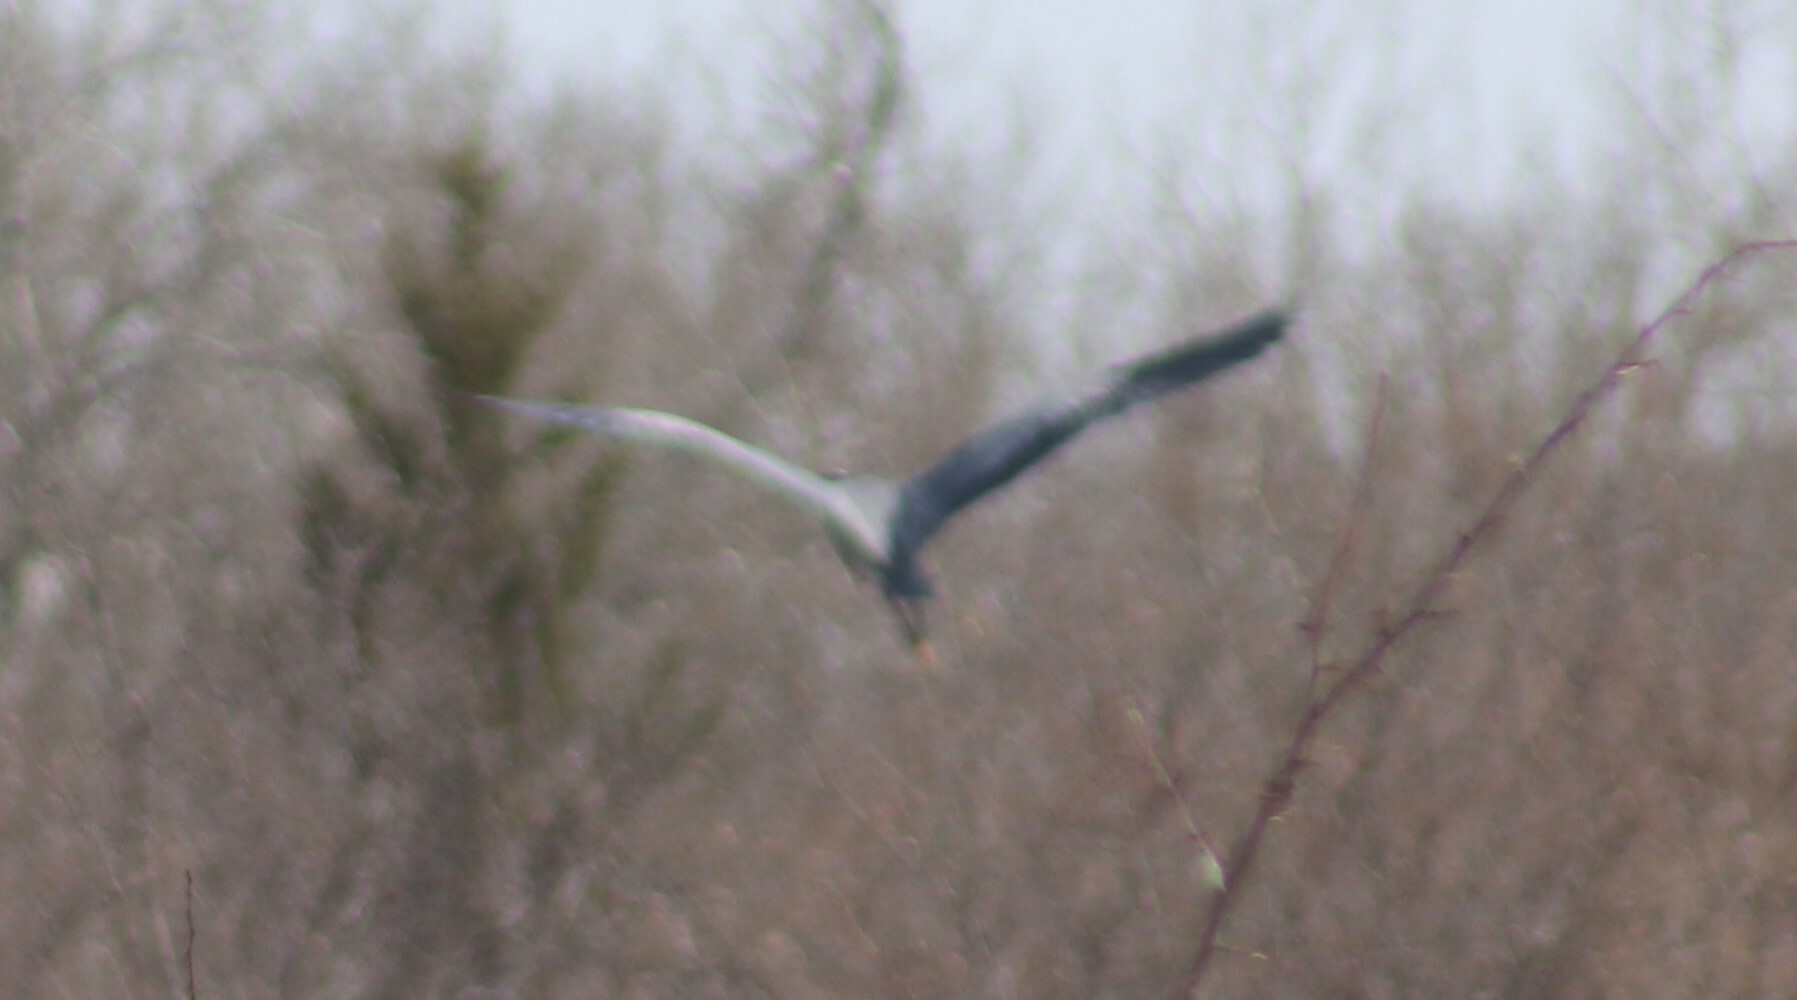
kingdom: Animalia
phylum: Chordata
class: Aves
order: Pelecaniformes
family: Ardeidae
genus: Ardea
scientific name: Ardea herodias
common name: Great blue heron
